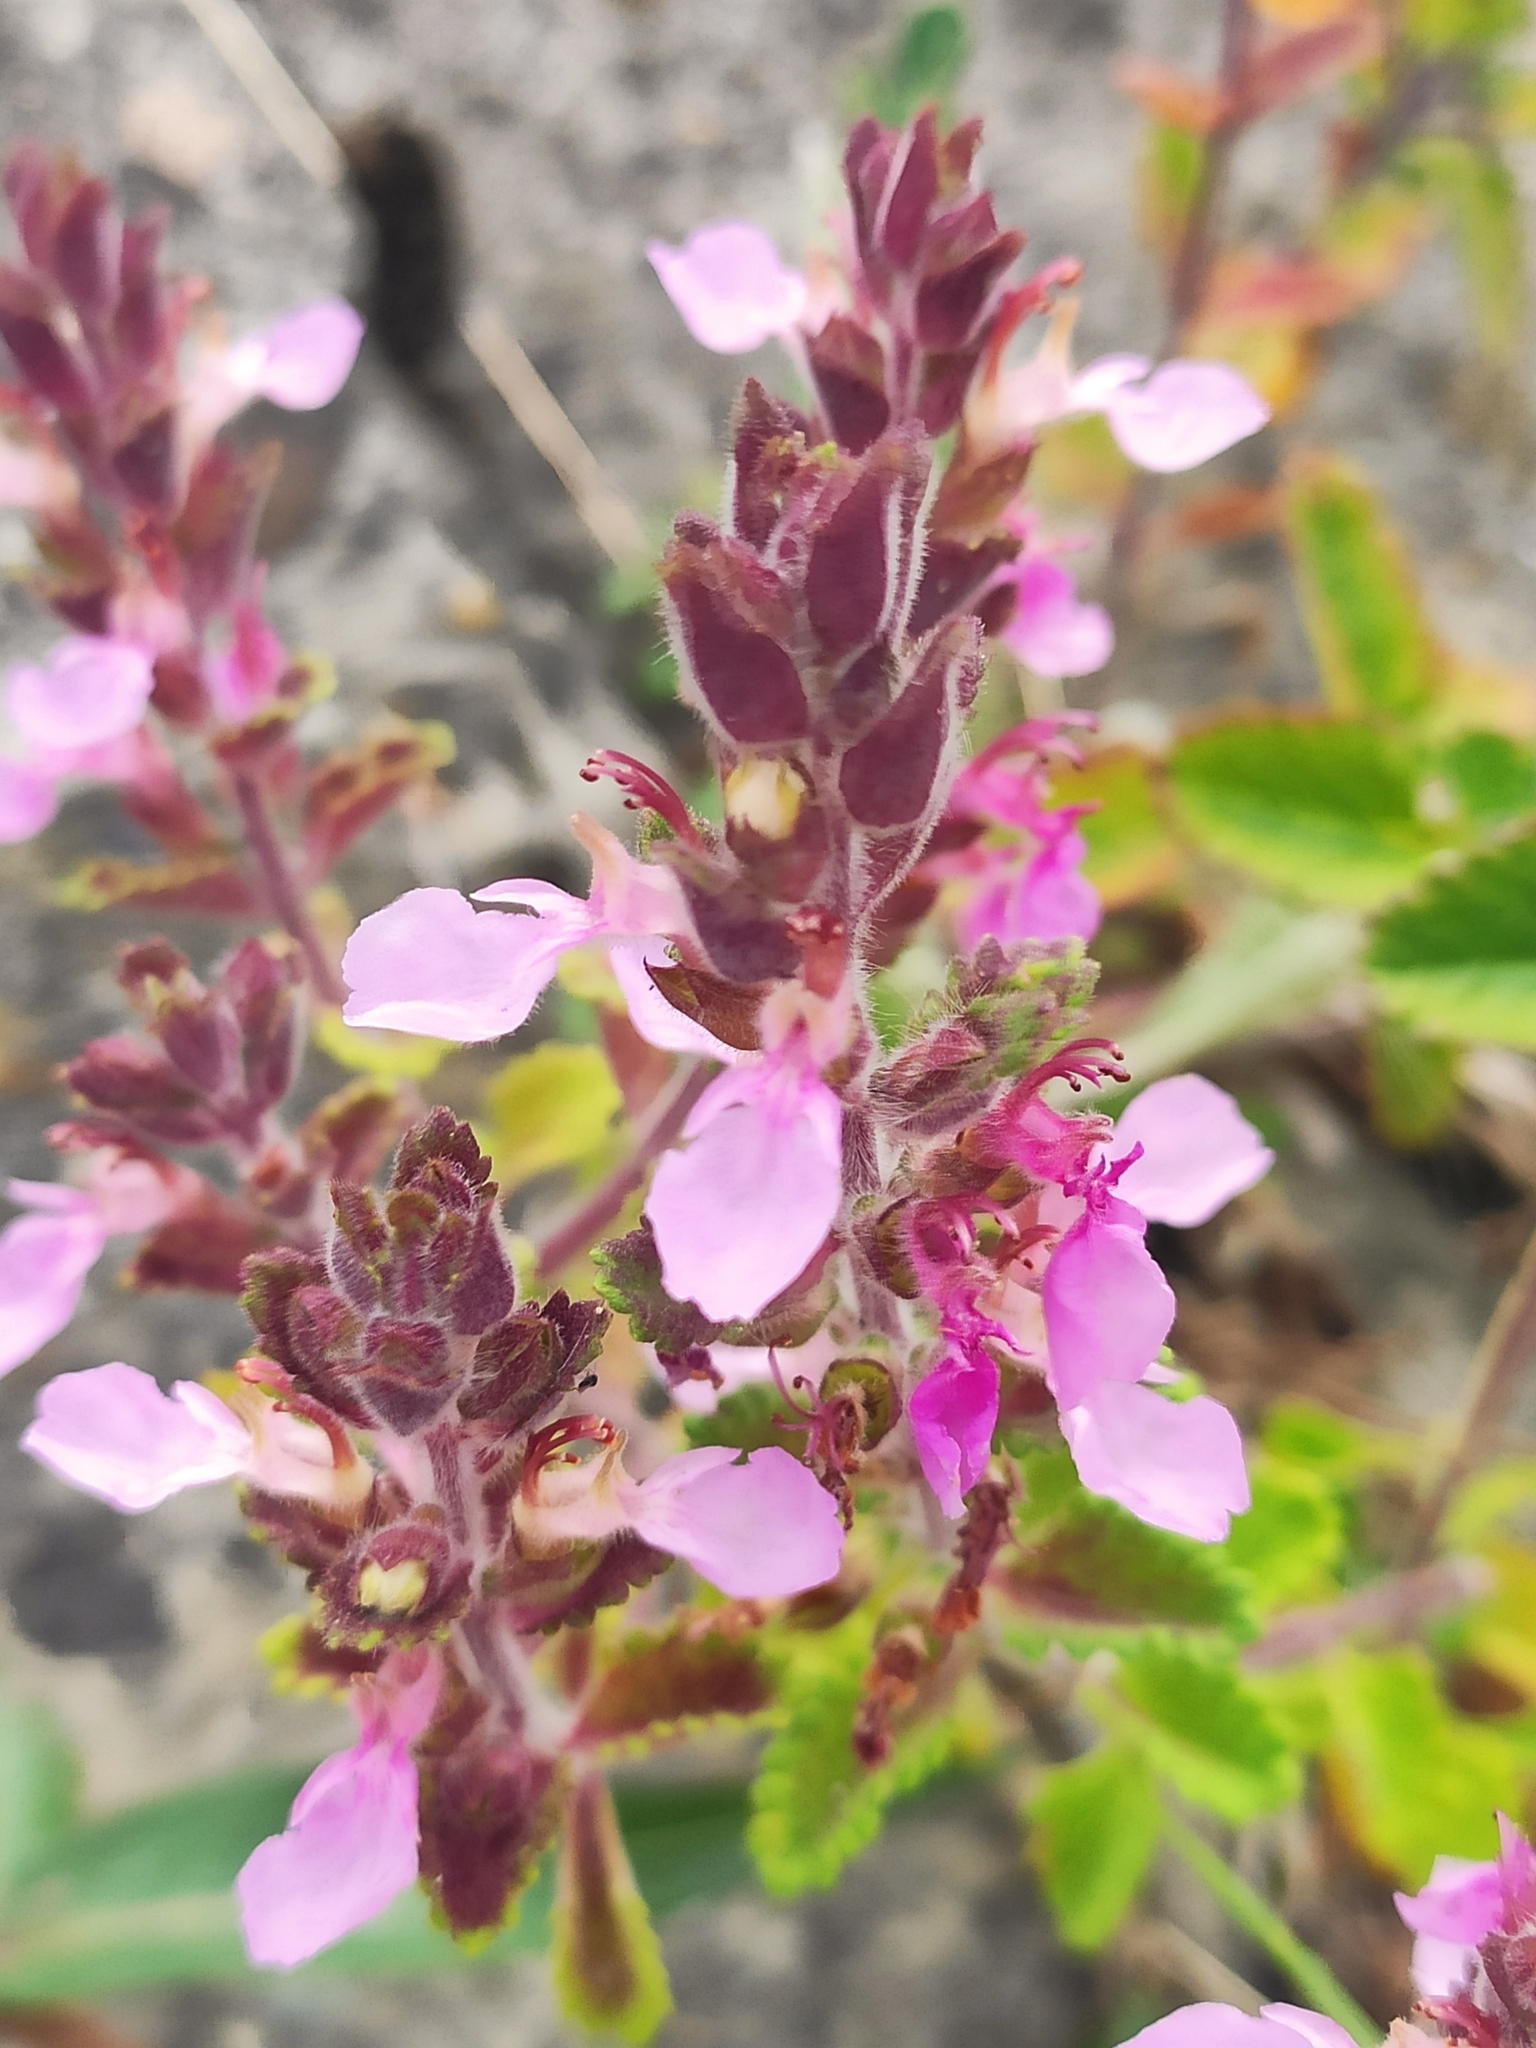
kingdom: Plantae
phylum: Tracheophyta
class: Magnoliopsida
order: Lamiales
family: Lamiaceae
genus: Teucrium
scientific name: Teucrium chamaedrys
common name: Wall germander
